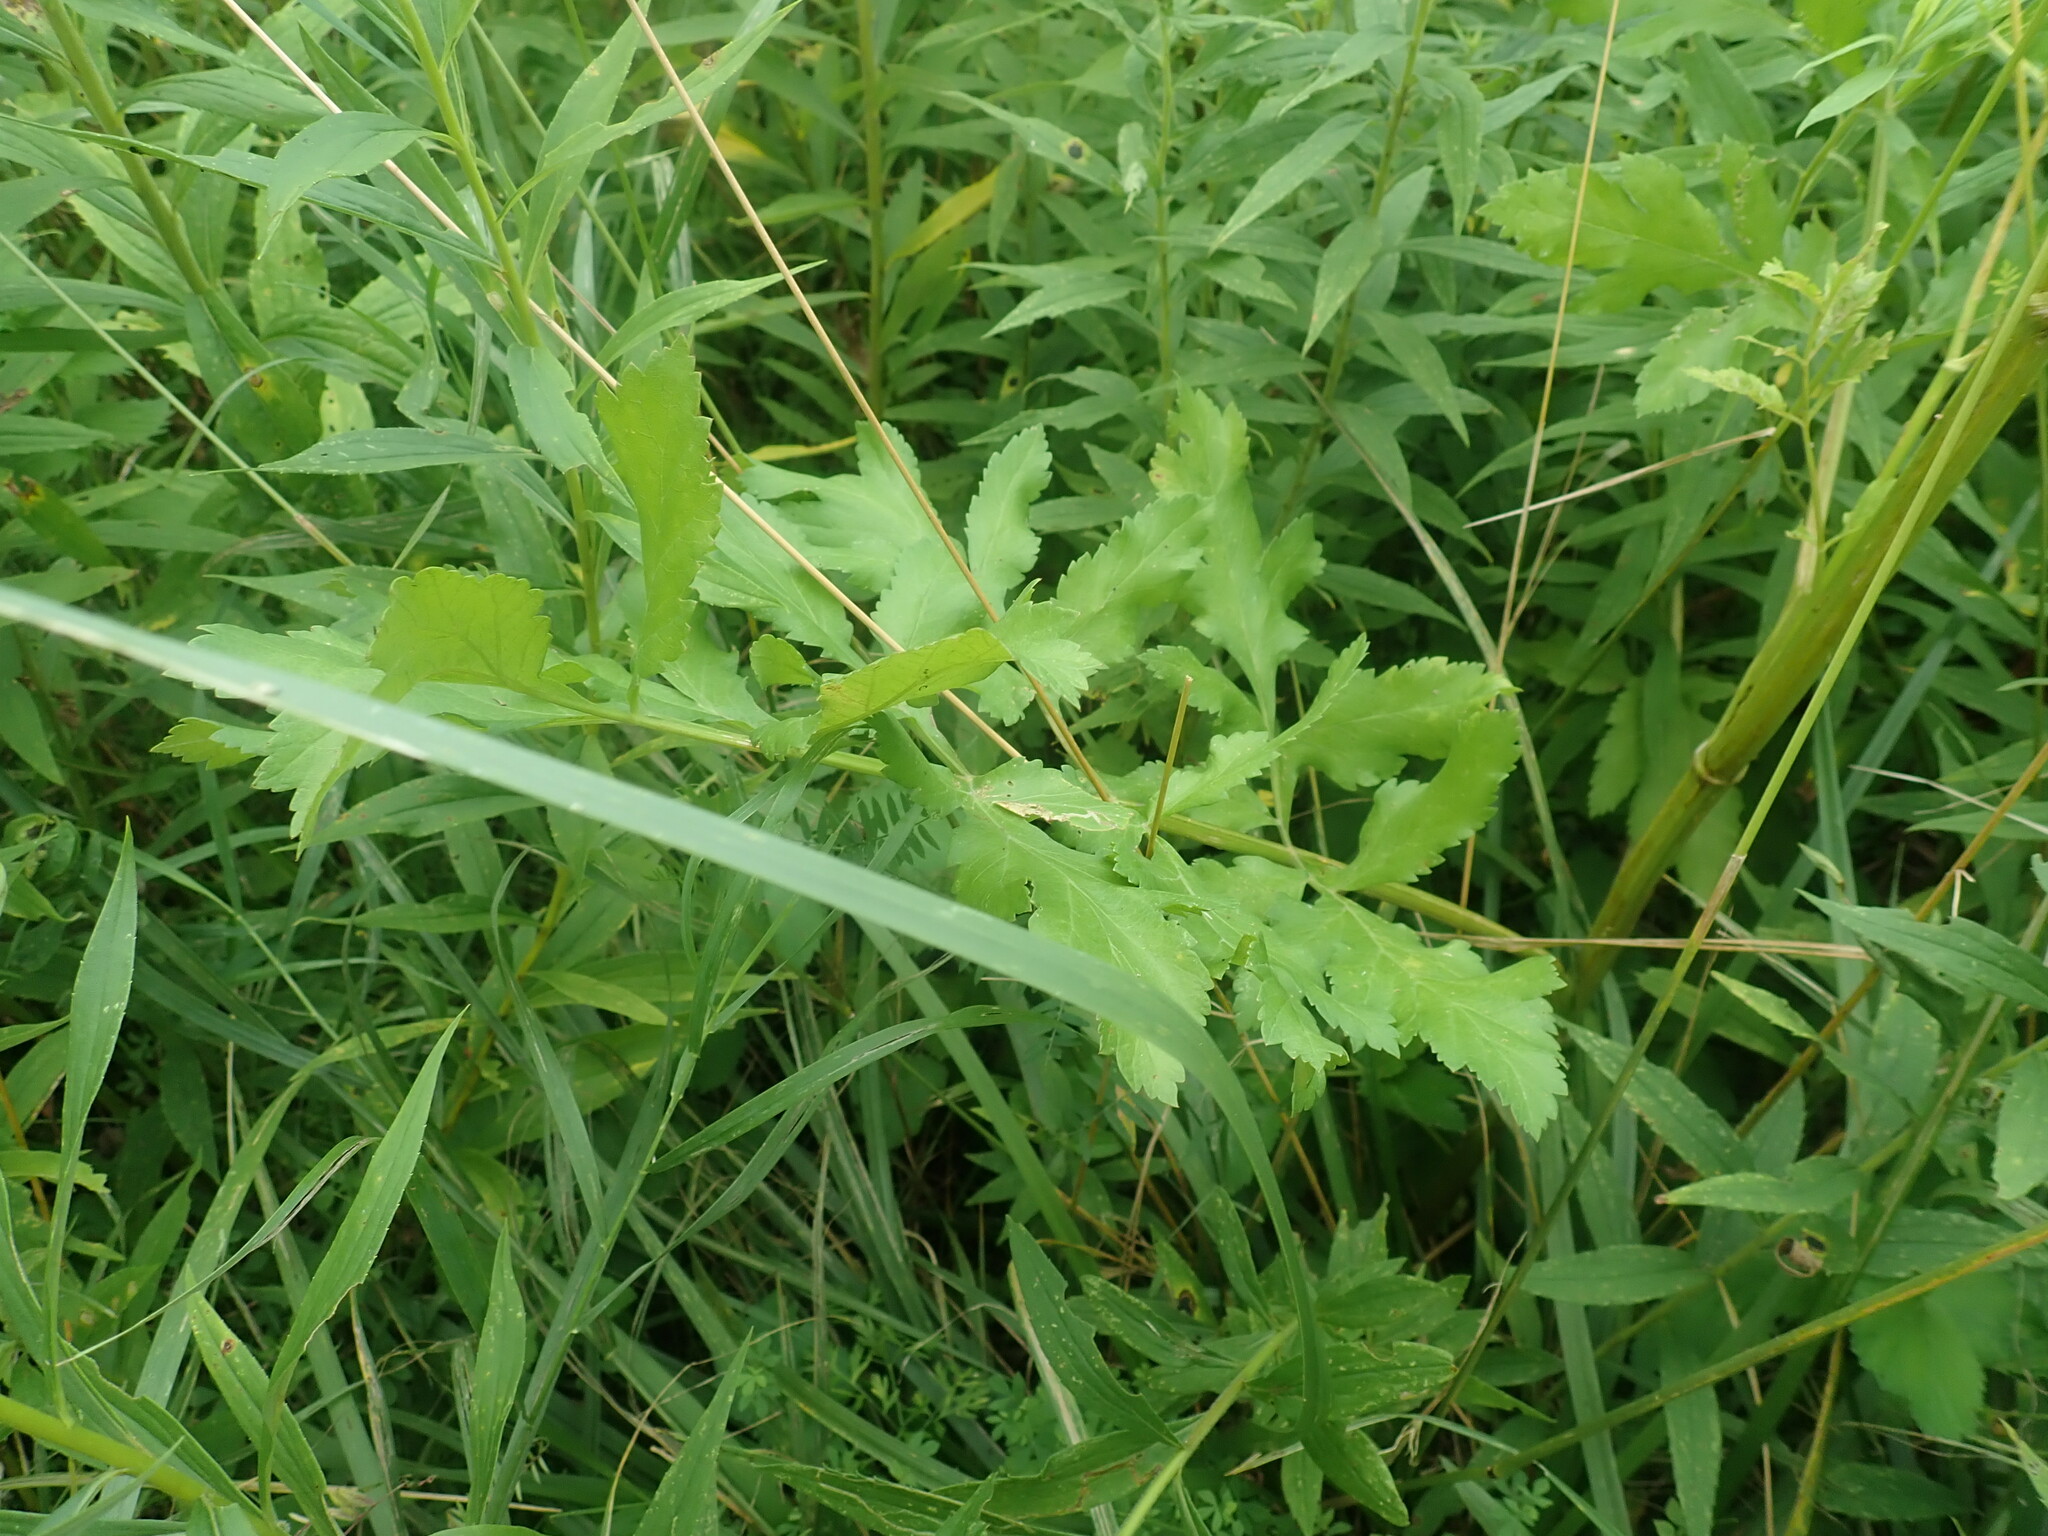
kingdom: Plantae
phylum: Tracheophyta
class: Magnoliopsida
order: Apiales
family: Apiaceae
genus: Pastinaca
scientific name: Pastinaca sativa
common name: Wild parsnip
